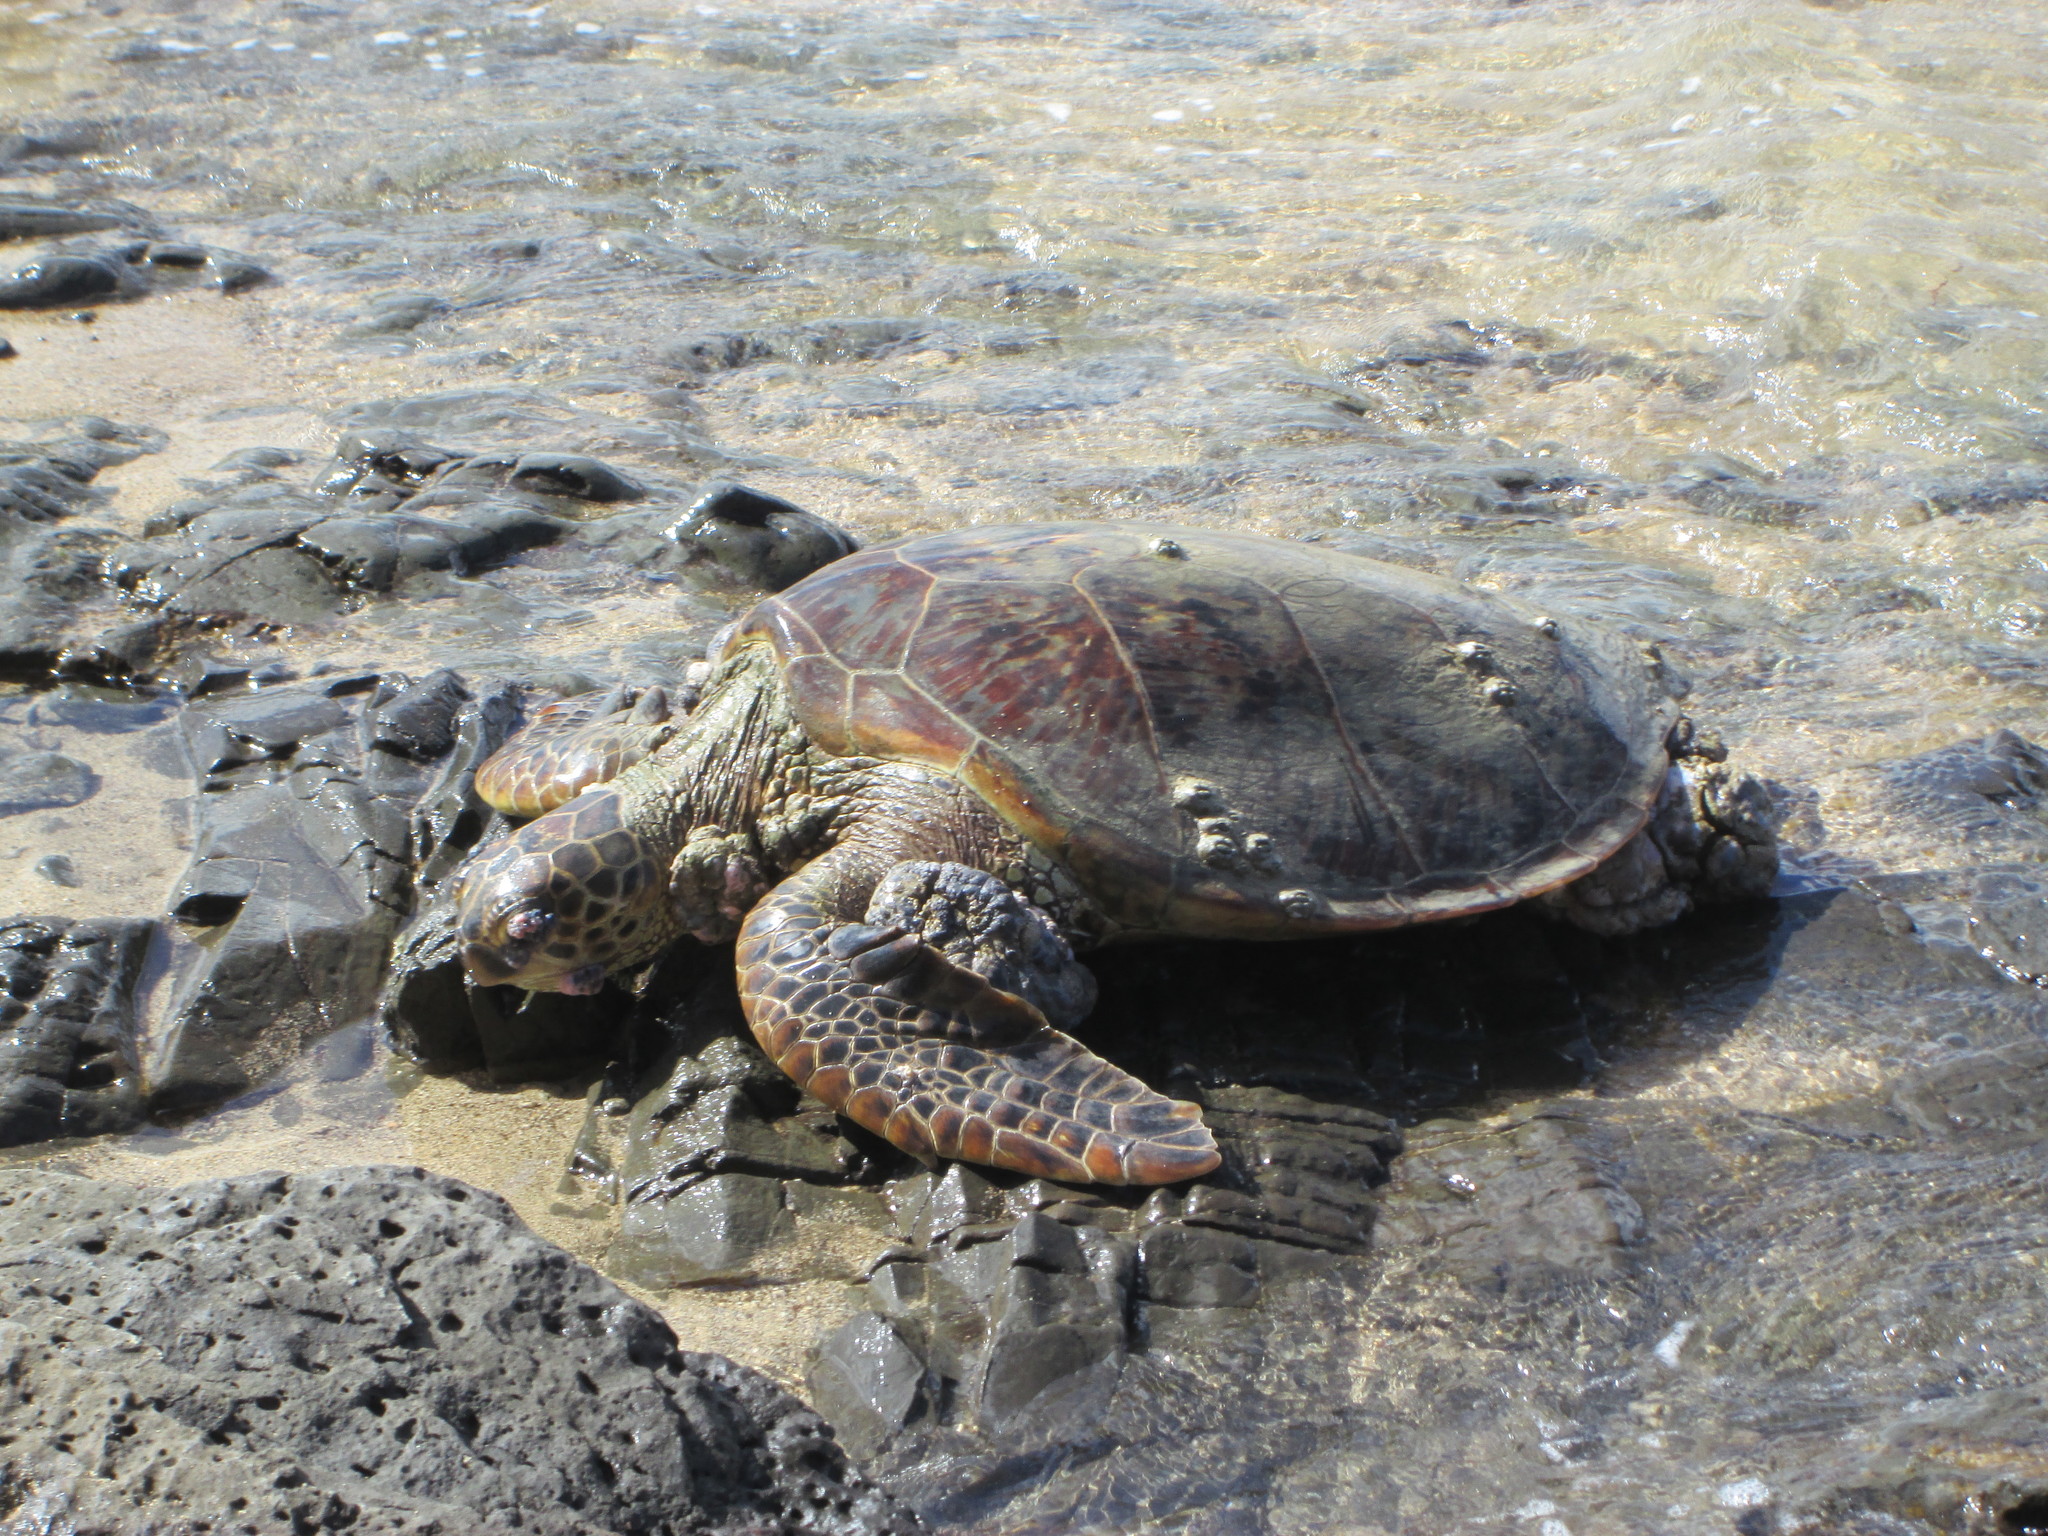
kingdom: Viruses
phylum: Peploviricota
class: Herviviricetes
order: Herpesvirales
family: Herpesviridae
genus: Scutavirus
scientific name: Scutavirus
